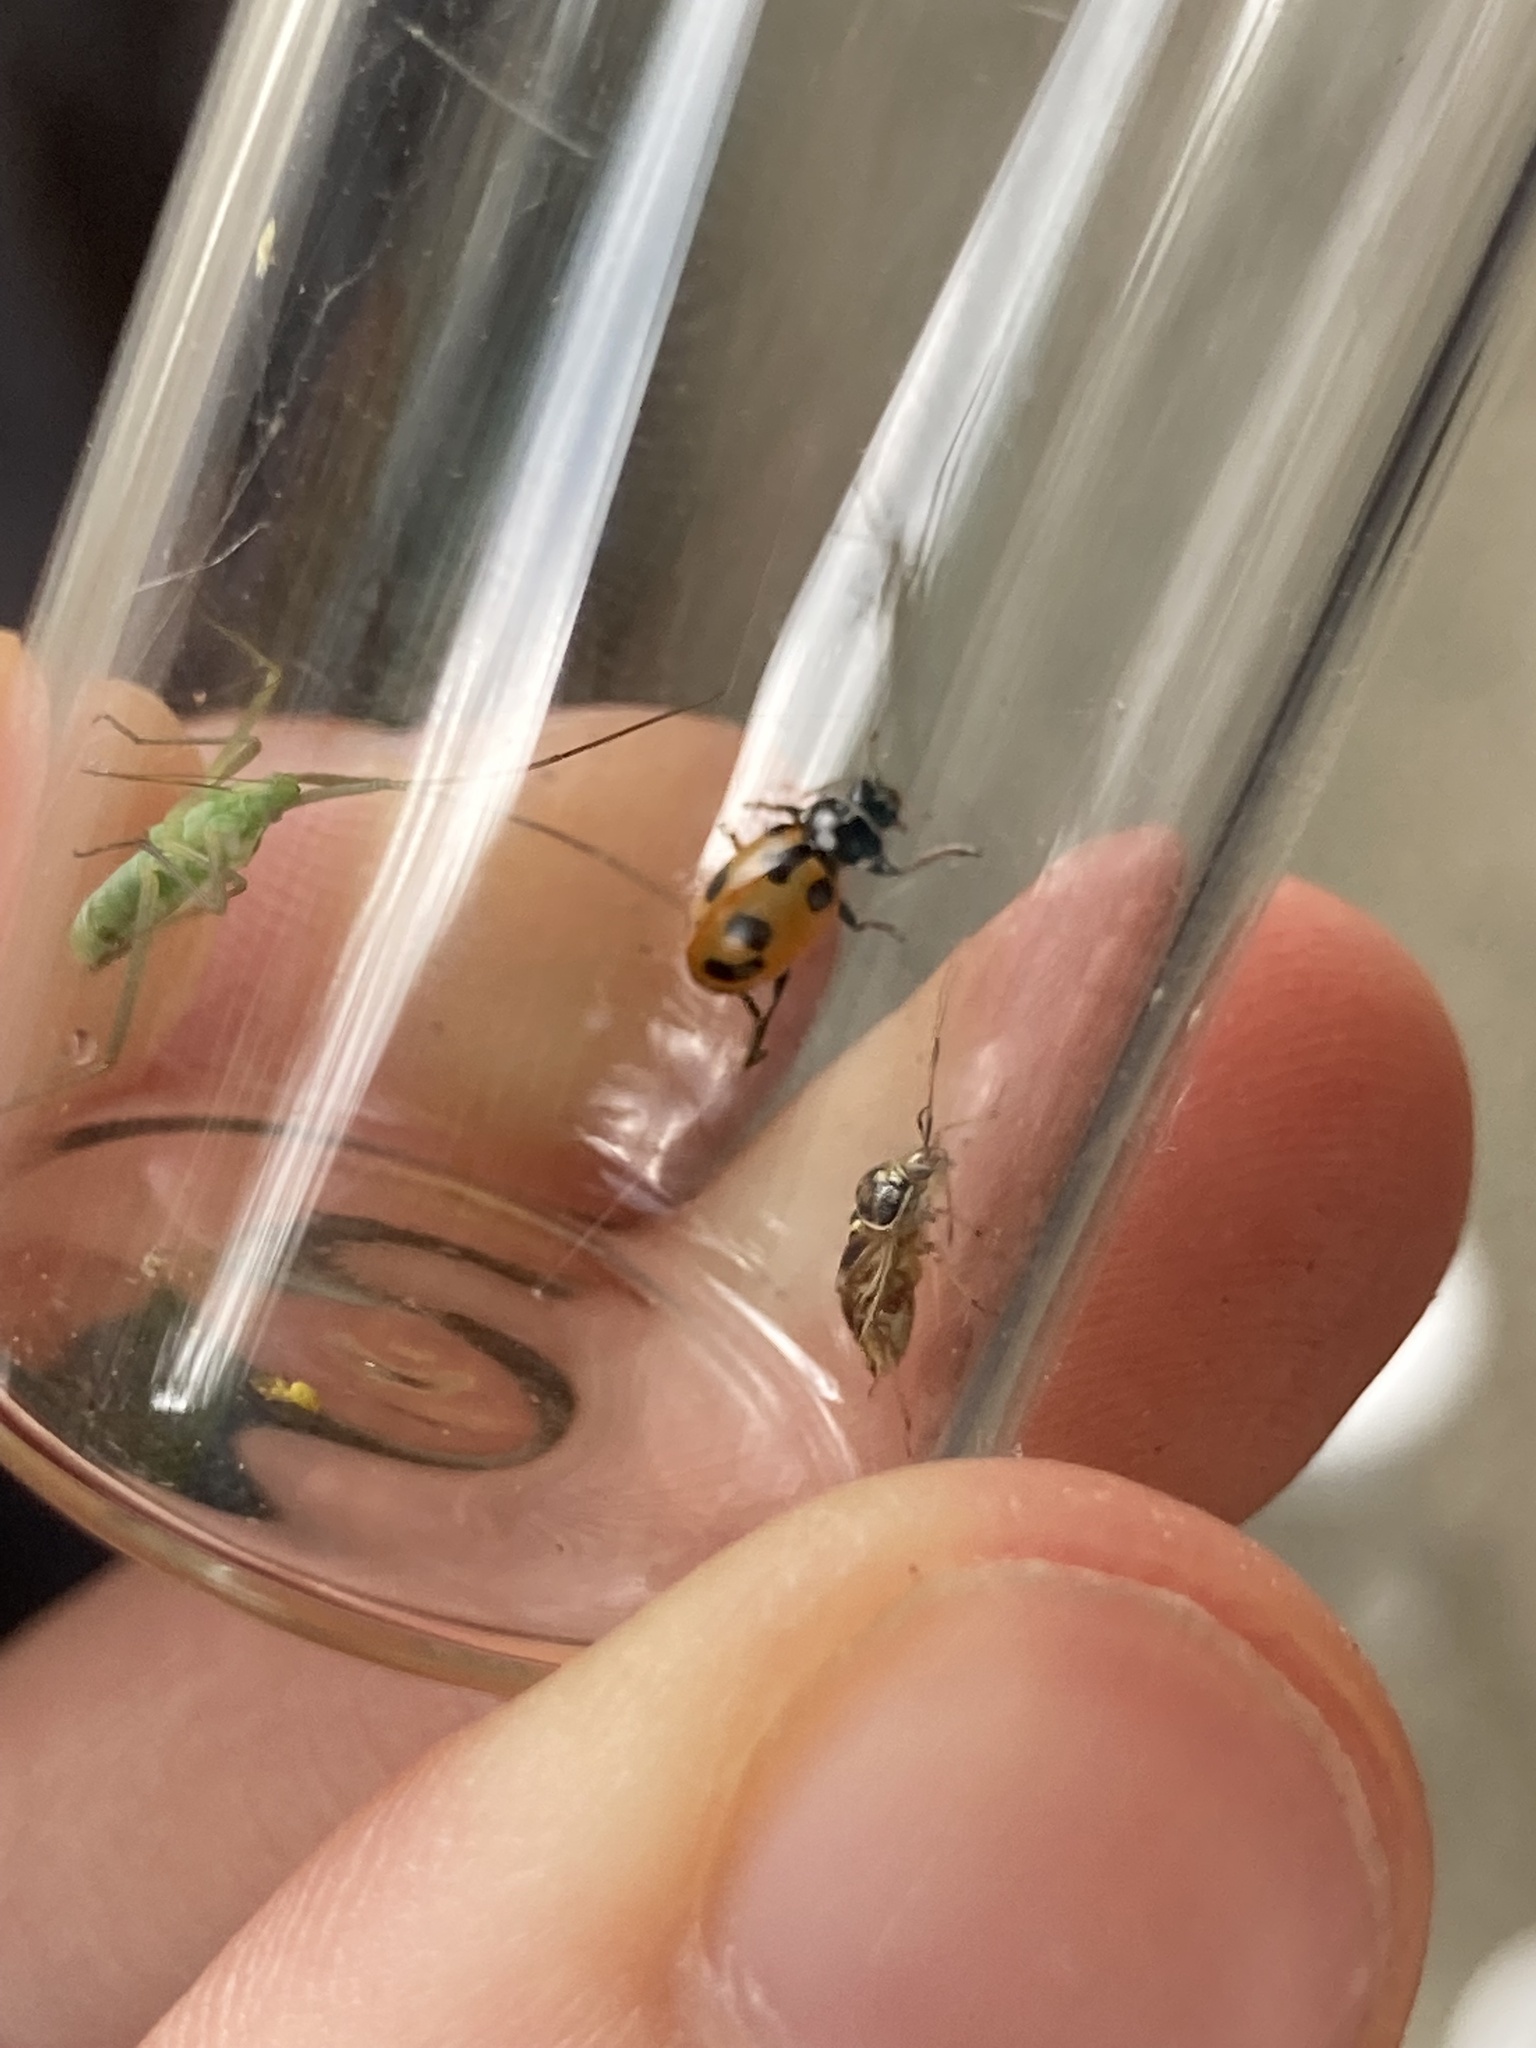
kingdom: Animalia
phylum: Arthropoda
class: Insecta
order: Coleoptera
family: Coccinellidae
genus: Hippodamia
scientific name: Hippodamia parenthesis
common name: Parenthesis lady beetle
